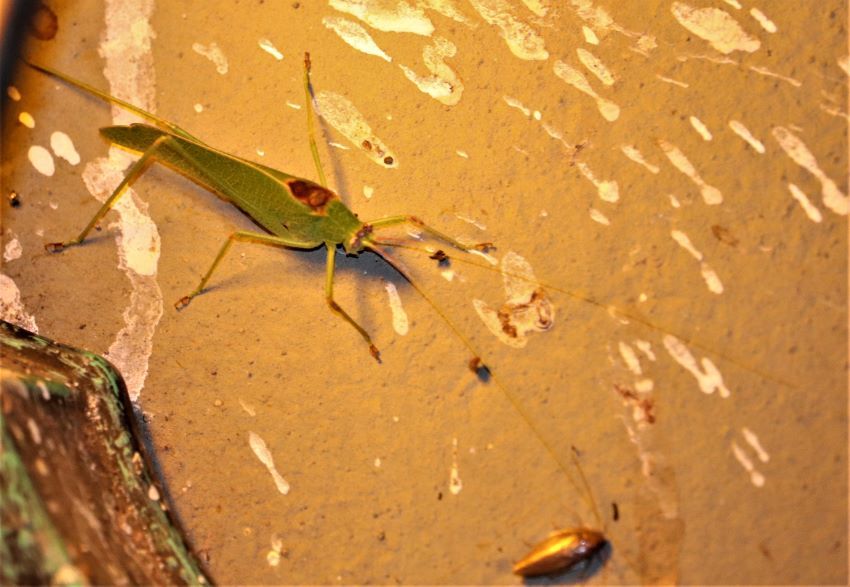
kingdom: Animalia
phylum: Arthropoda
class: Insecta
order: Orthoptera
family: Tettigoniidae
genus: Melidia
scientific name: Melidia claudiae
